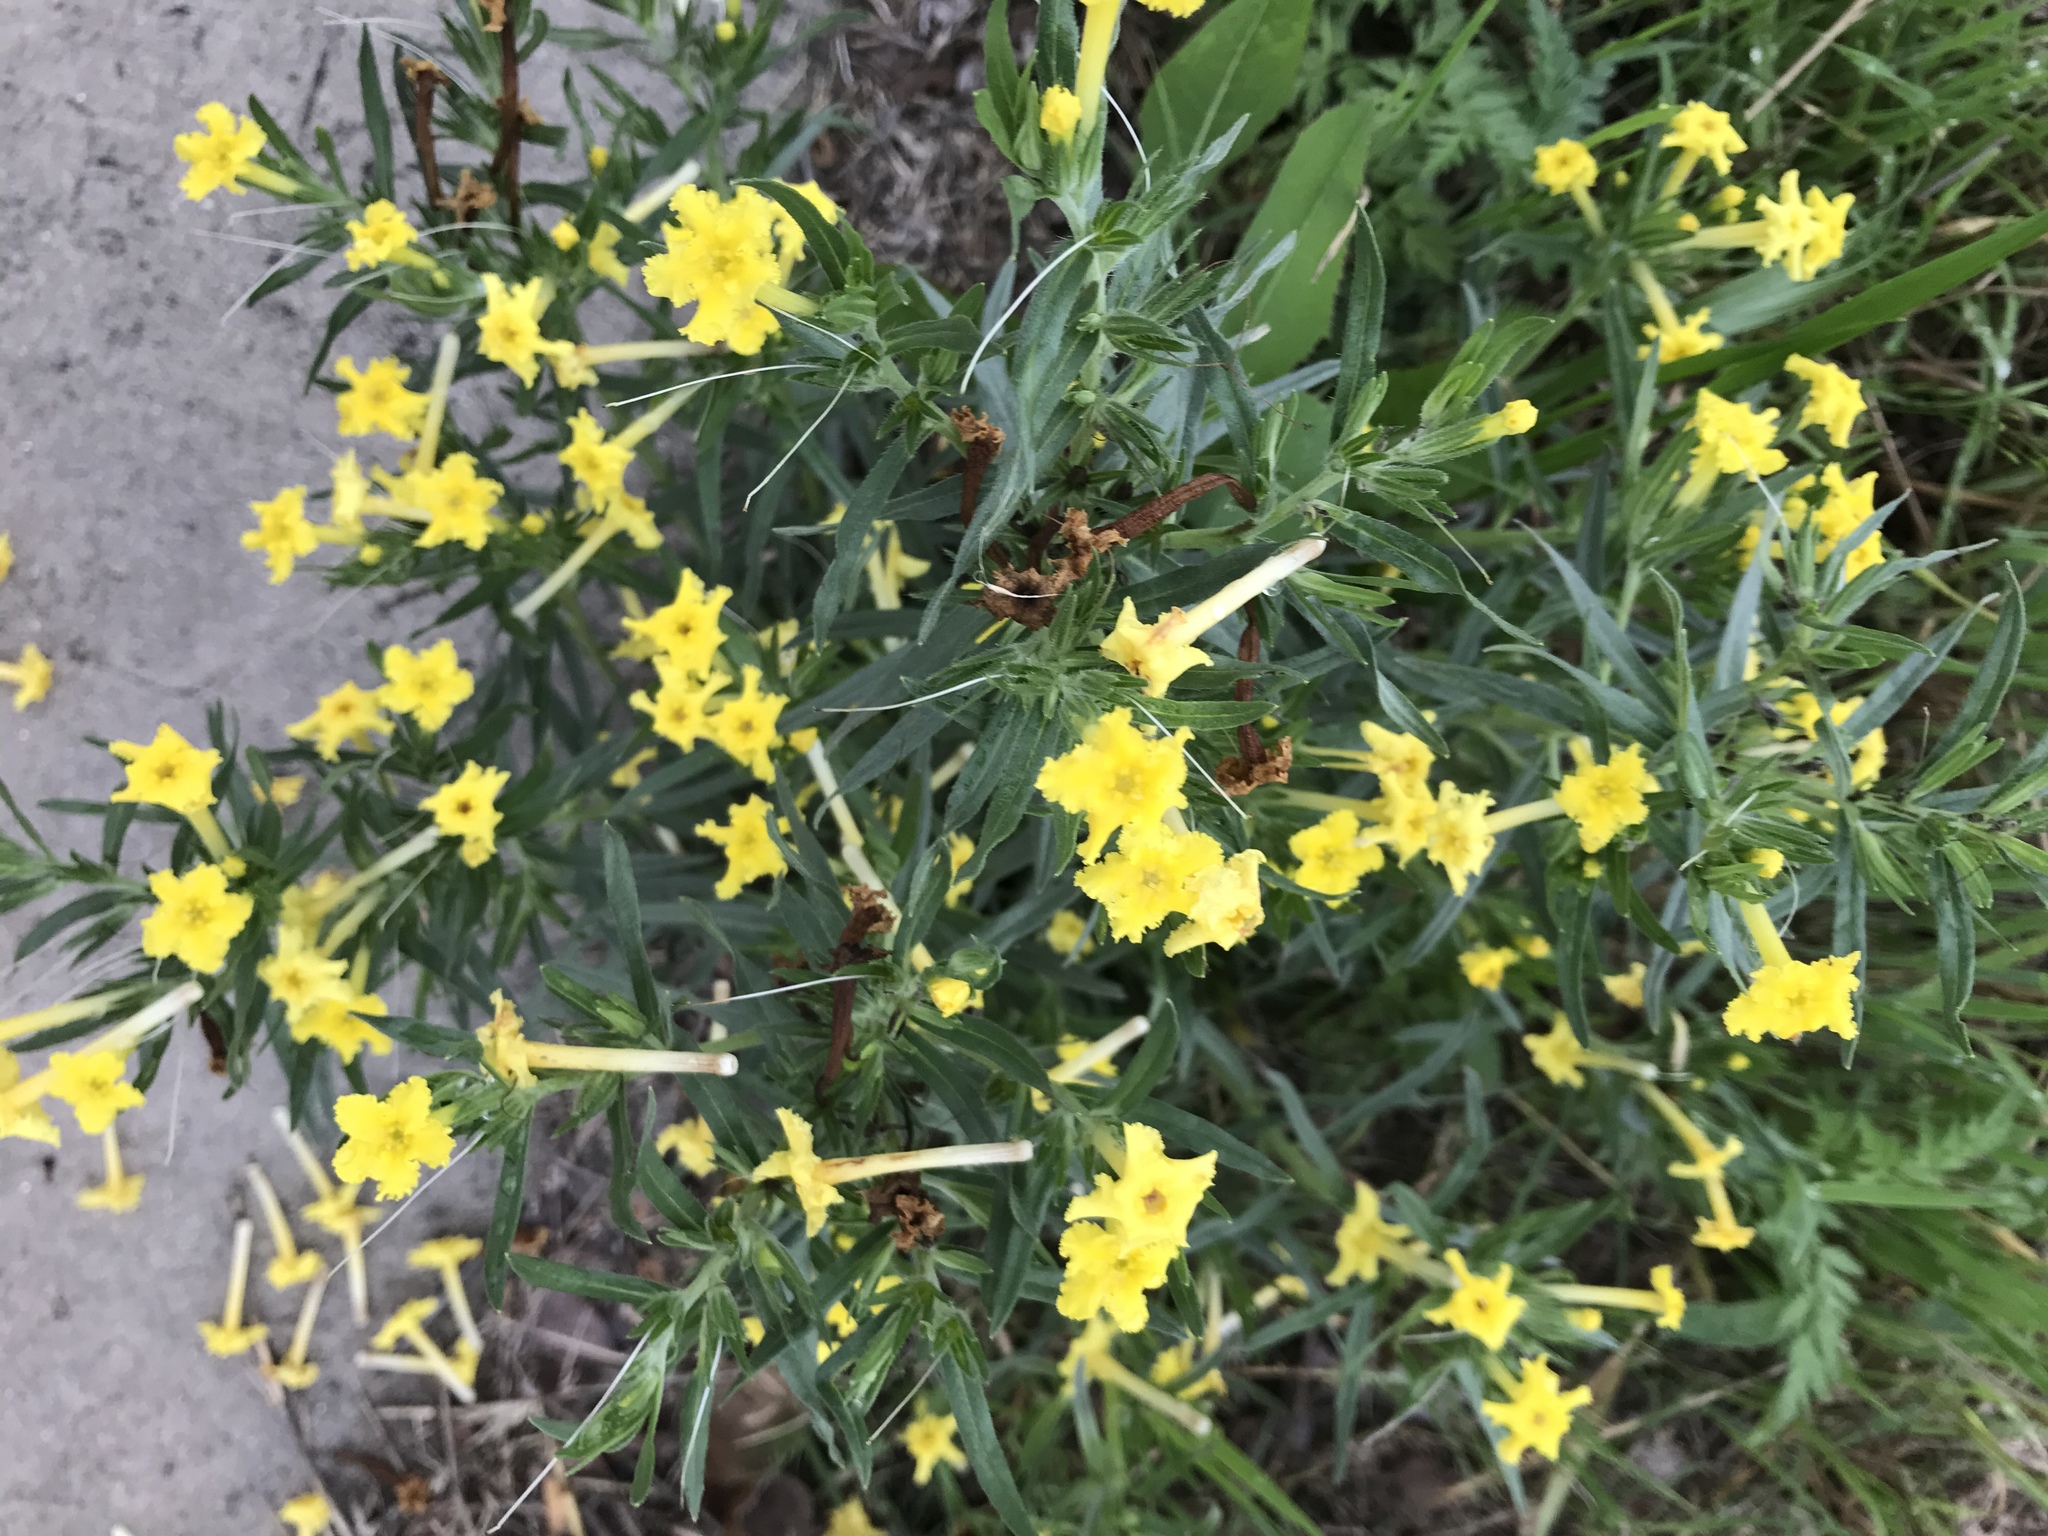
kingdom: Plantae
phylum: Tracheophyta
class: Magnoliopsida
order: Boraginales
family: Boraginaceae
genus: Lithospermum
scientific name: Lithospermum incisum
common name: Fringed gromwell
